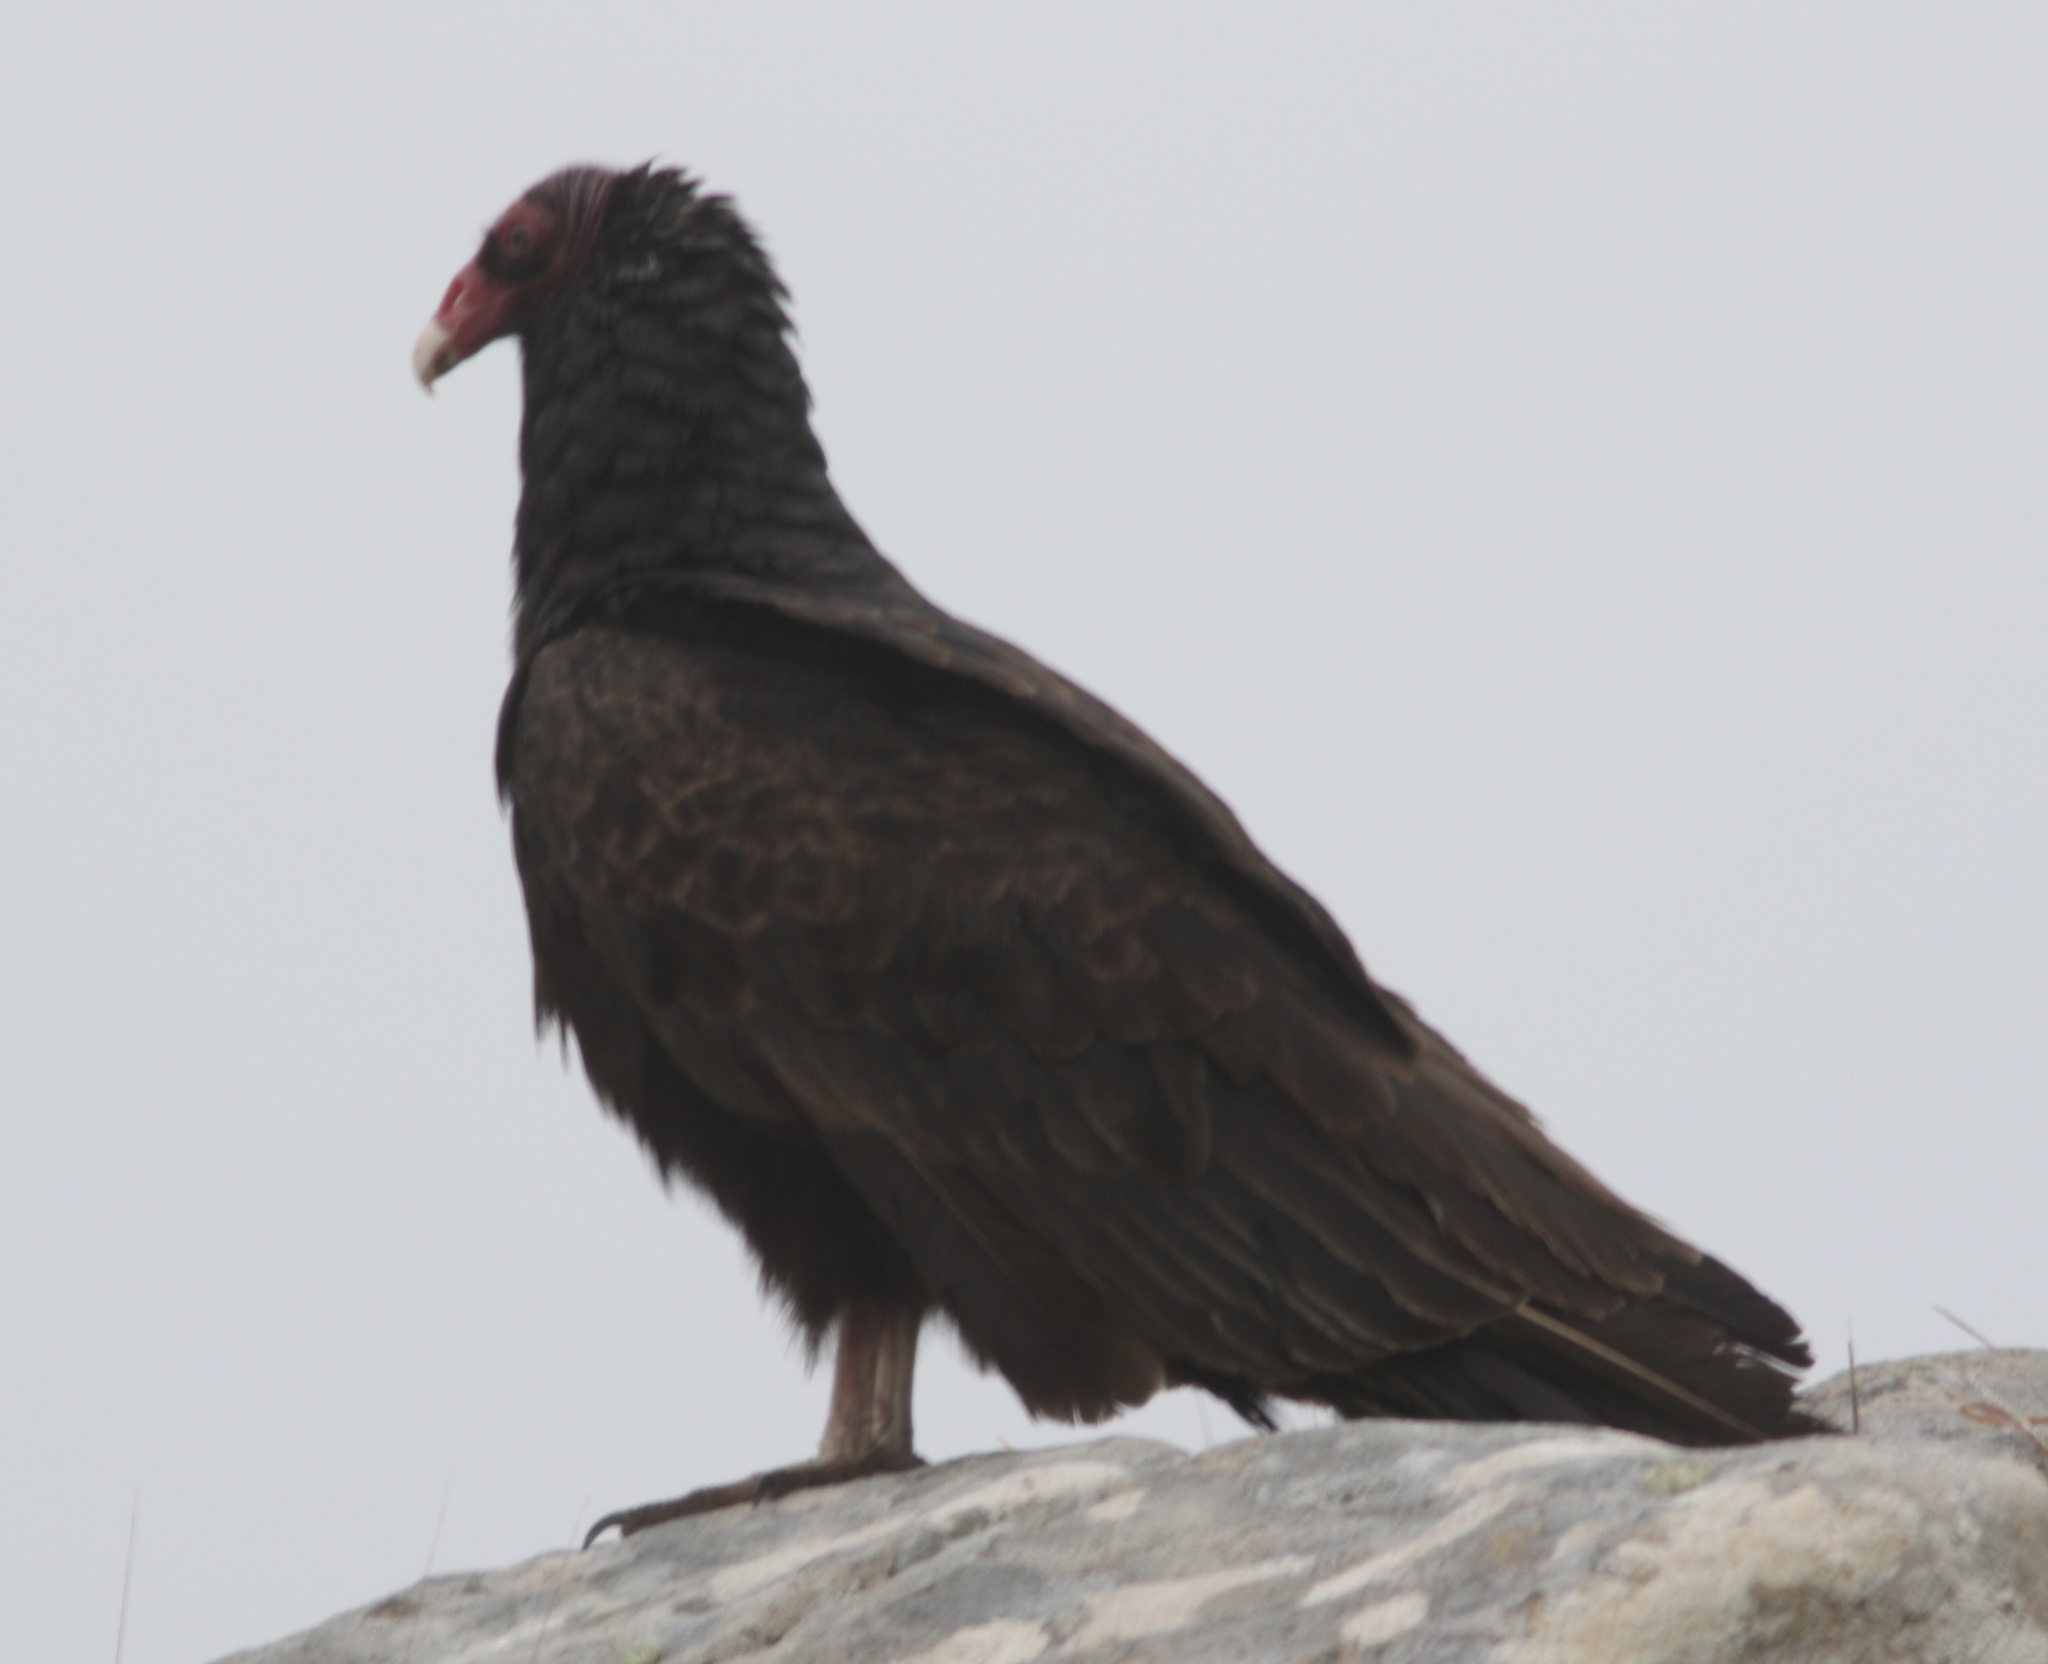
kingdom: Animalia
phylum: Chordata
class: Aves
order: Accipitriformes
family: Cathartidae
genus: Cathartes
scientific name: Cathartes aura
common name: Turkey vulture
